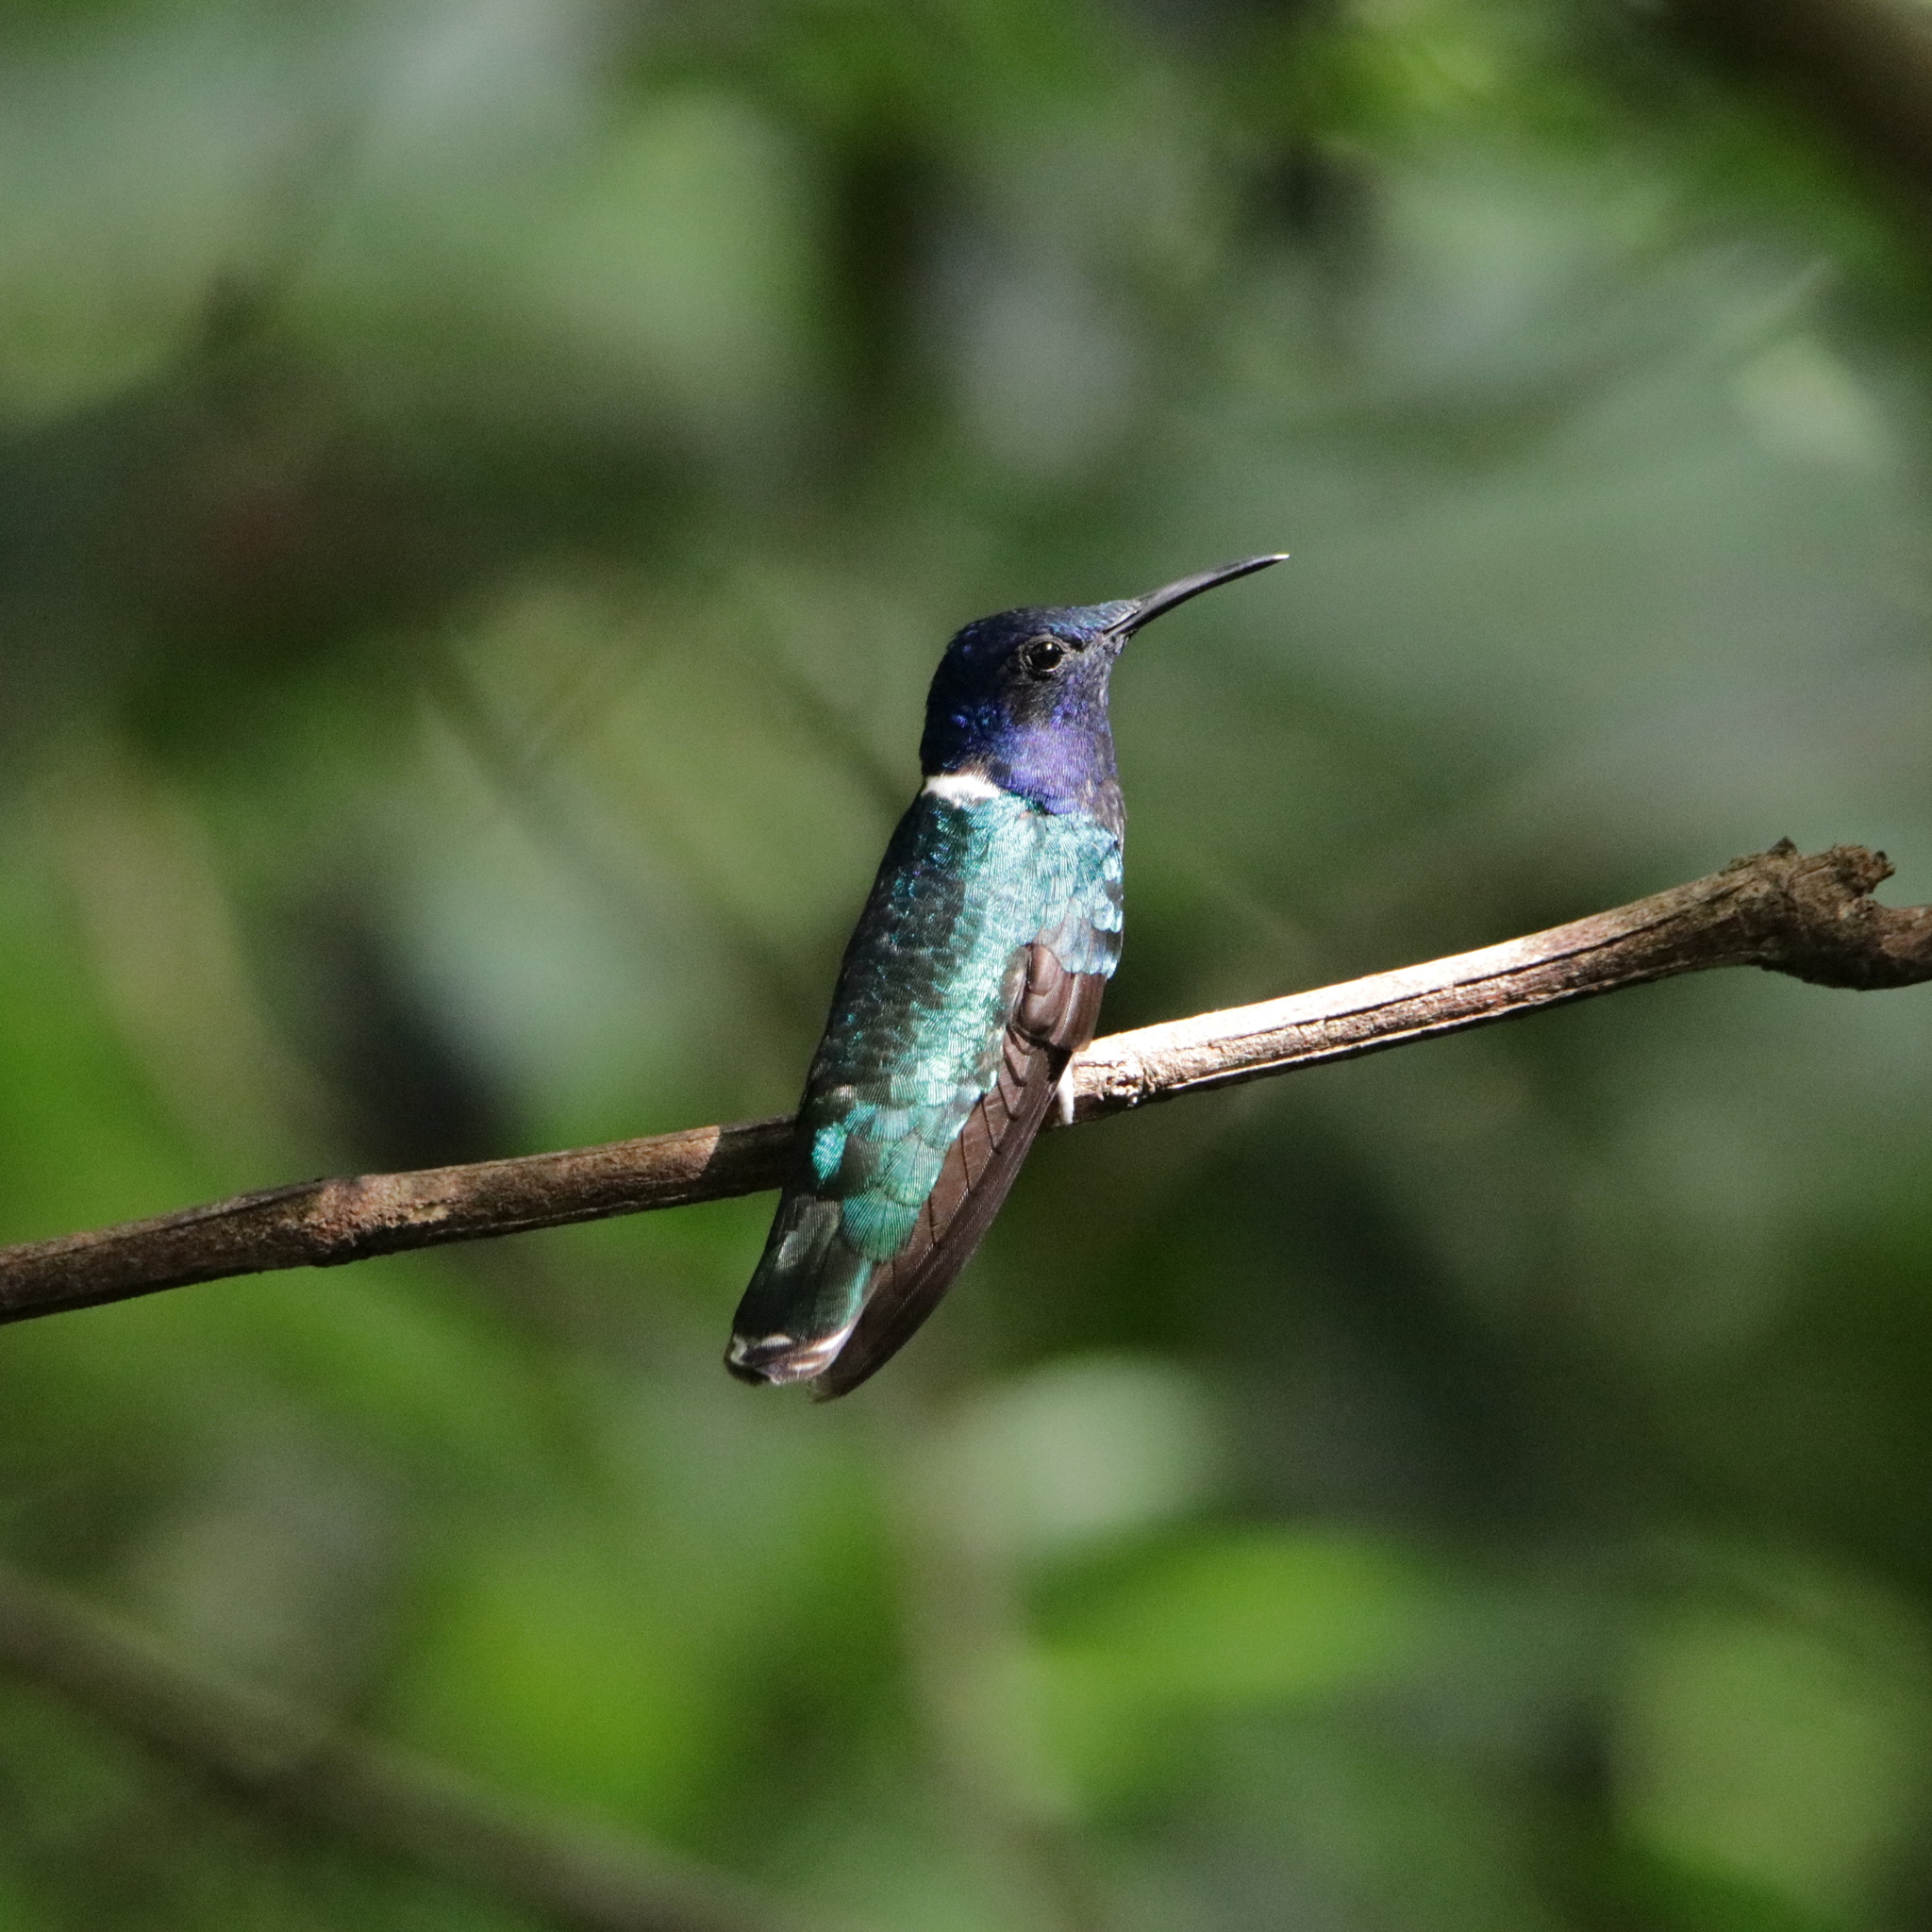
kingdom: Animalia
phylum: Chordata
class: Aves
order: Apodiformes
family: Trochilidae
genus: Florisuga
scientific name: Florisuga mellivora
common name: White-necked jacobin
